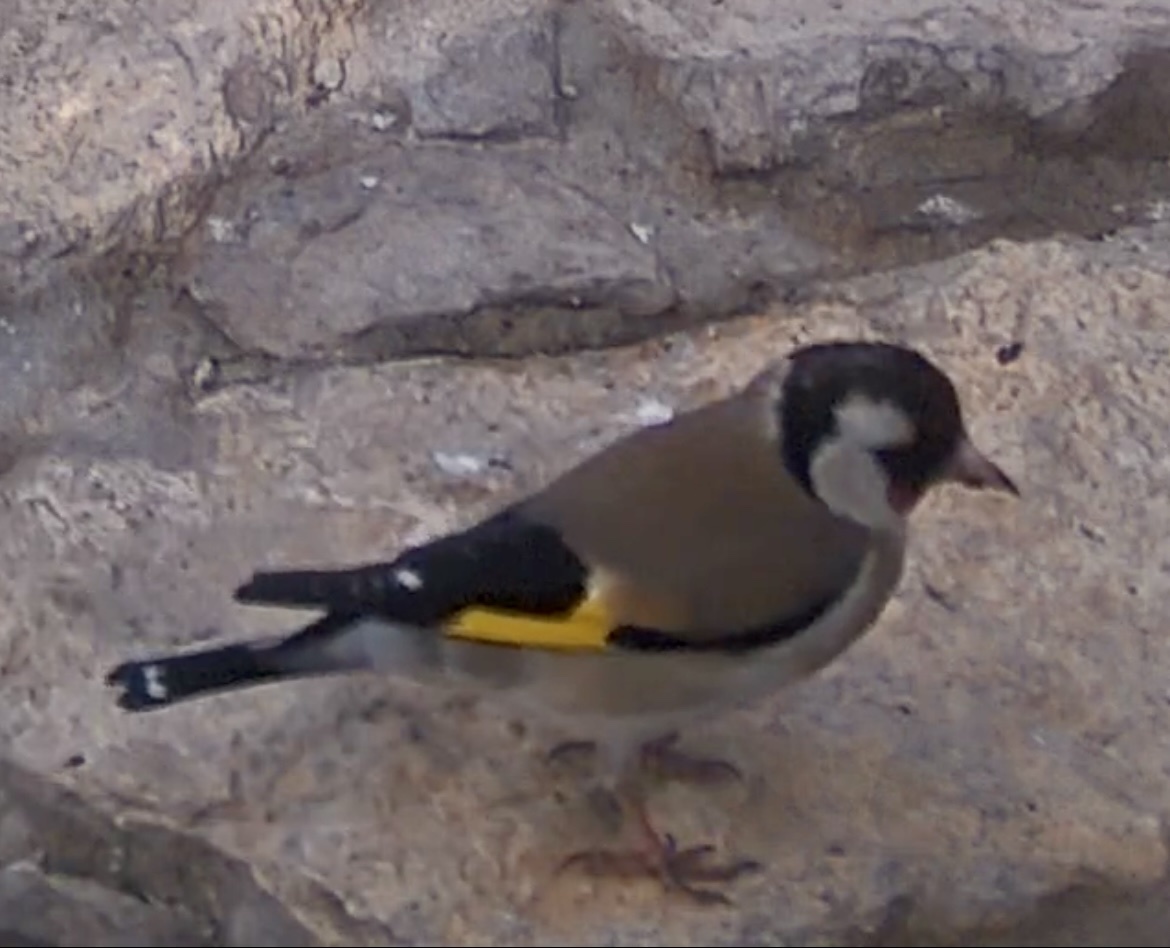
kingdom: Animalia
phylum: Chordata
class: Aves
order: Passeriformes
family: Fringillidae
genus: Carduelis
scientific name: Carduelis carduelis
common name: European goldfinch
